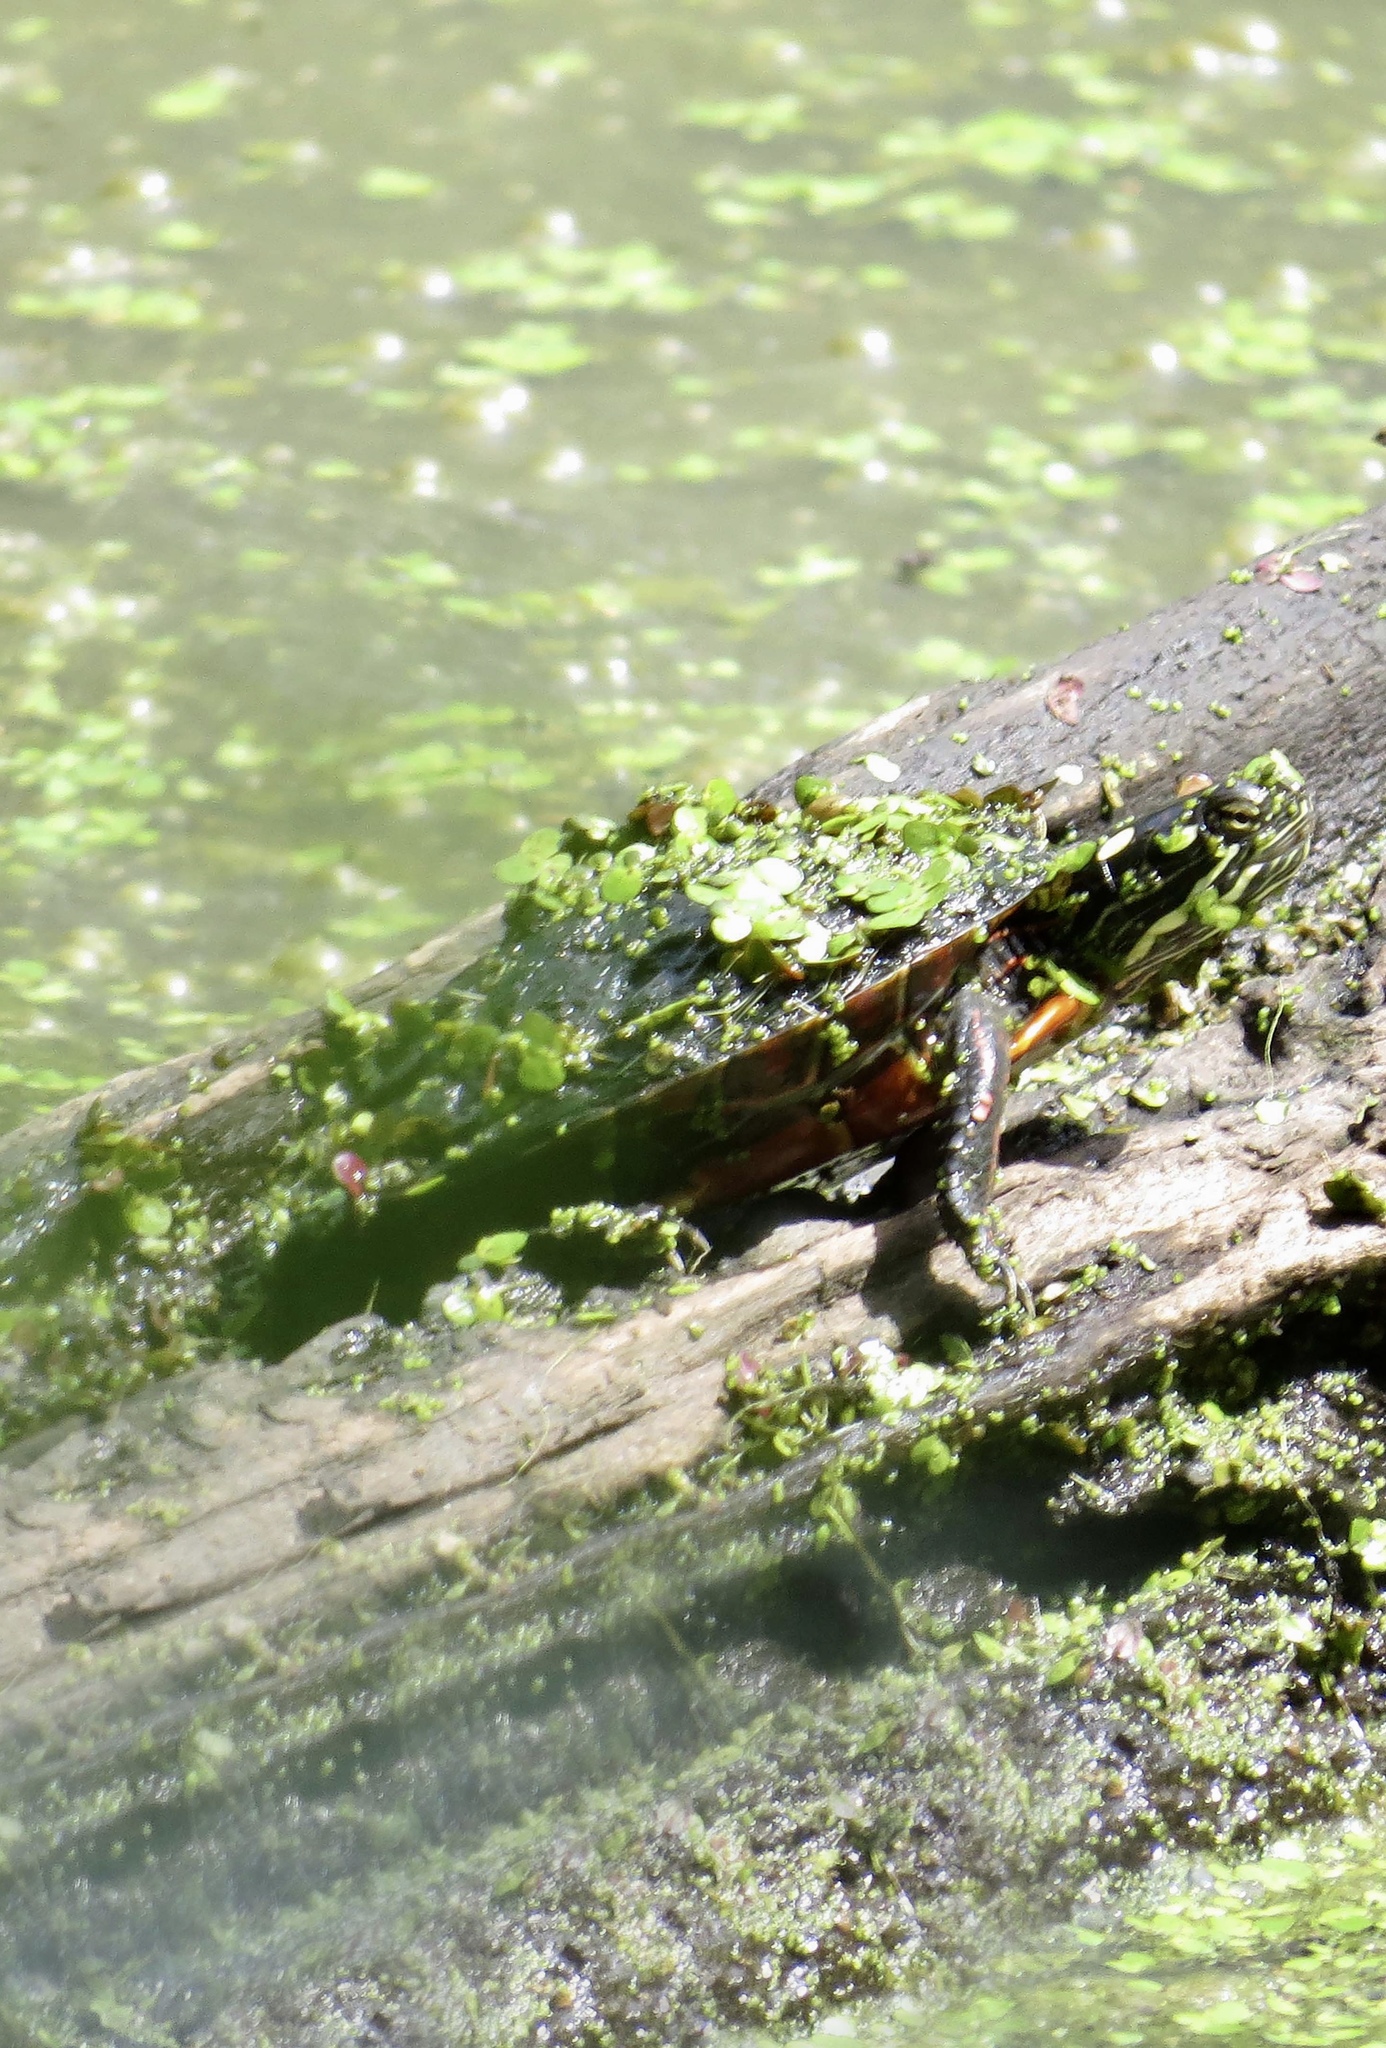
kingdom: Animalia
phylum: Chordata
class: Testudines
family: Emydidae
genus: Chrysemys
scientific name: Chrysemys picta
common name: Painted turtle
